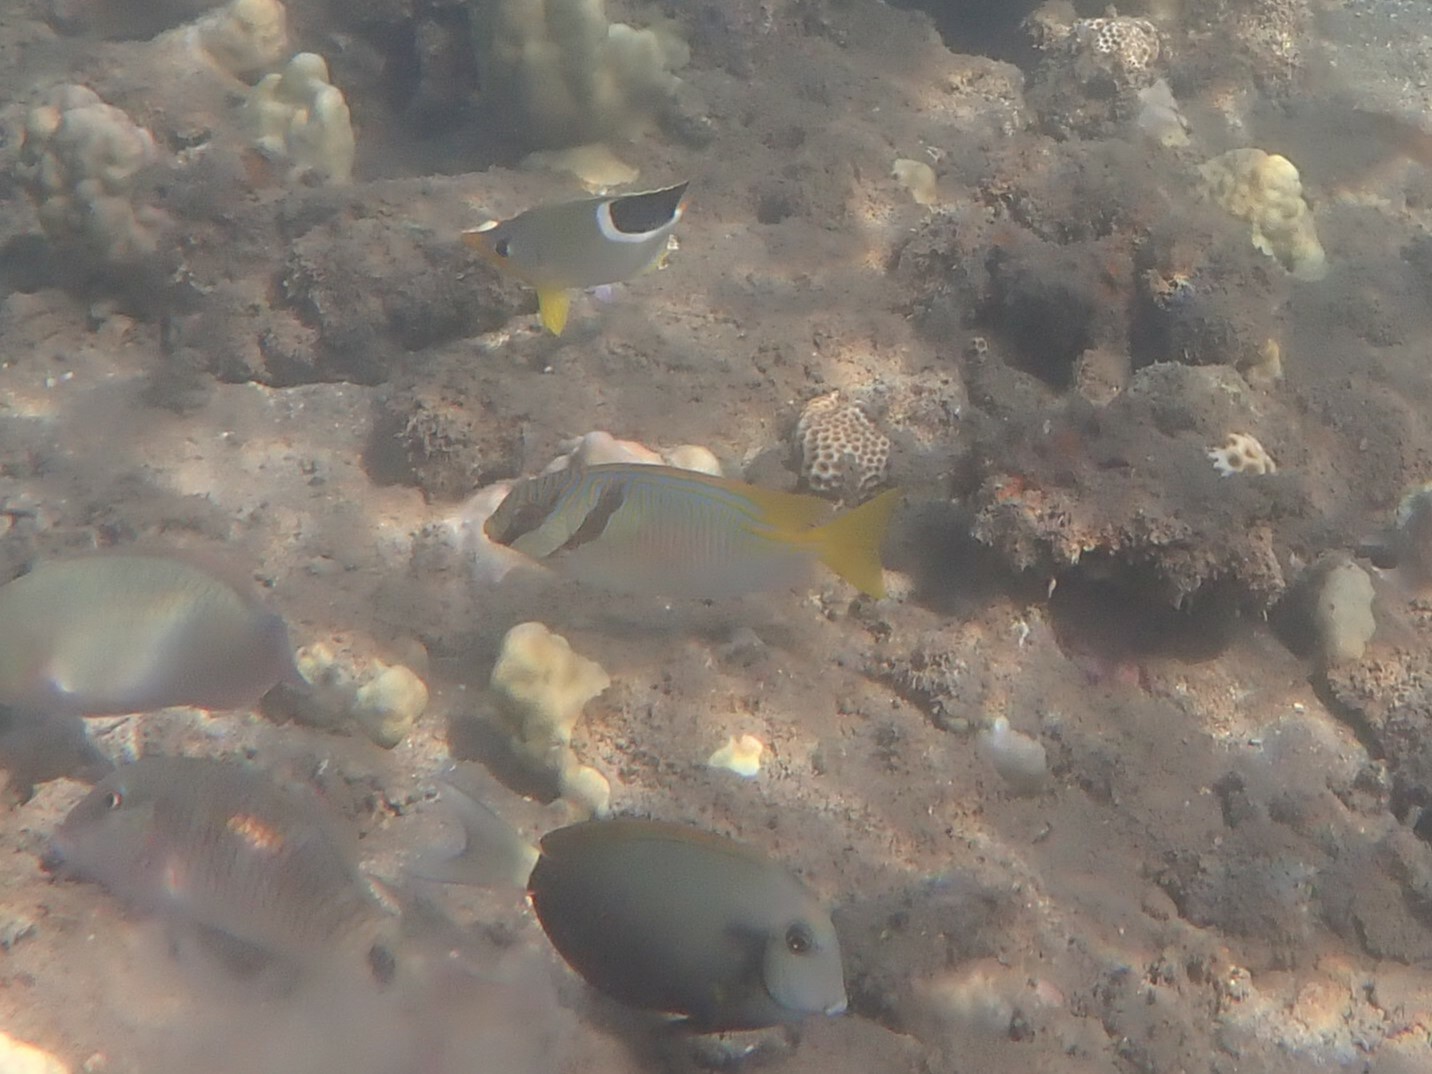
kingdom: Animalia
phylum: Chordata
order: Perciformes
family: Siganidae
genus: Siganus
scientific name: Siganus doliatus
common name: Barred spinefoot
